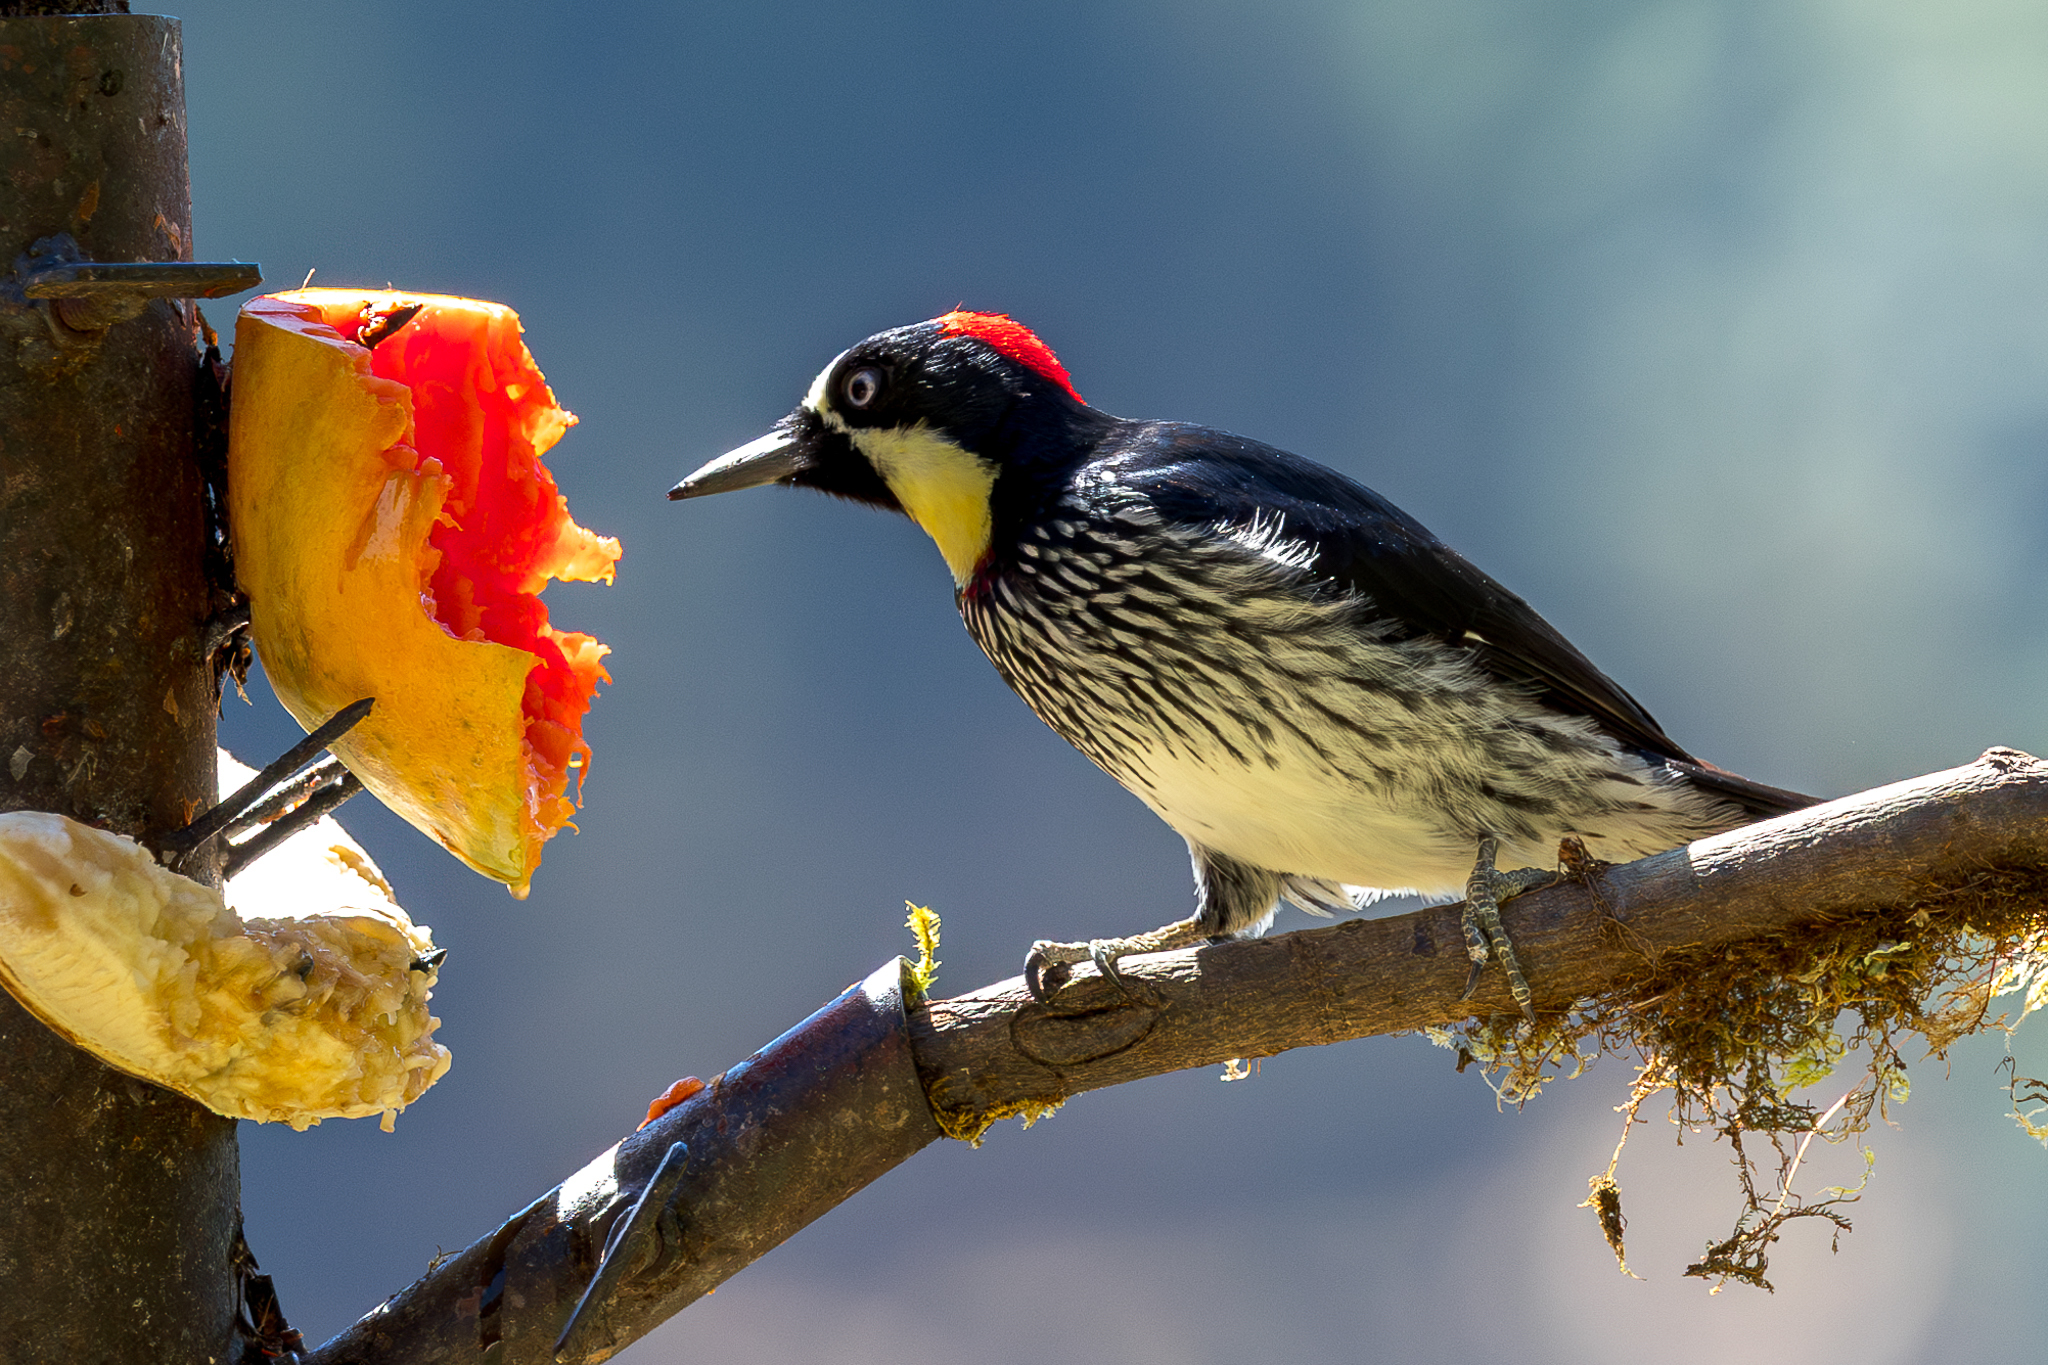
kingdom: Animalia
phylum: Chordata
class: Aves
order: Piciformes
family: Picidae
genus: Melanerpes
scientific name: Melanerpes formicivorus
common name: Acorn woodpecker
